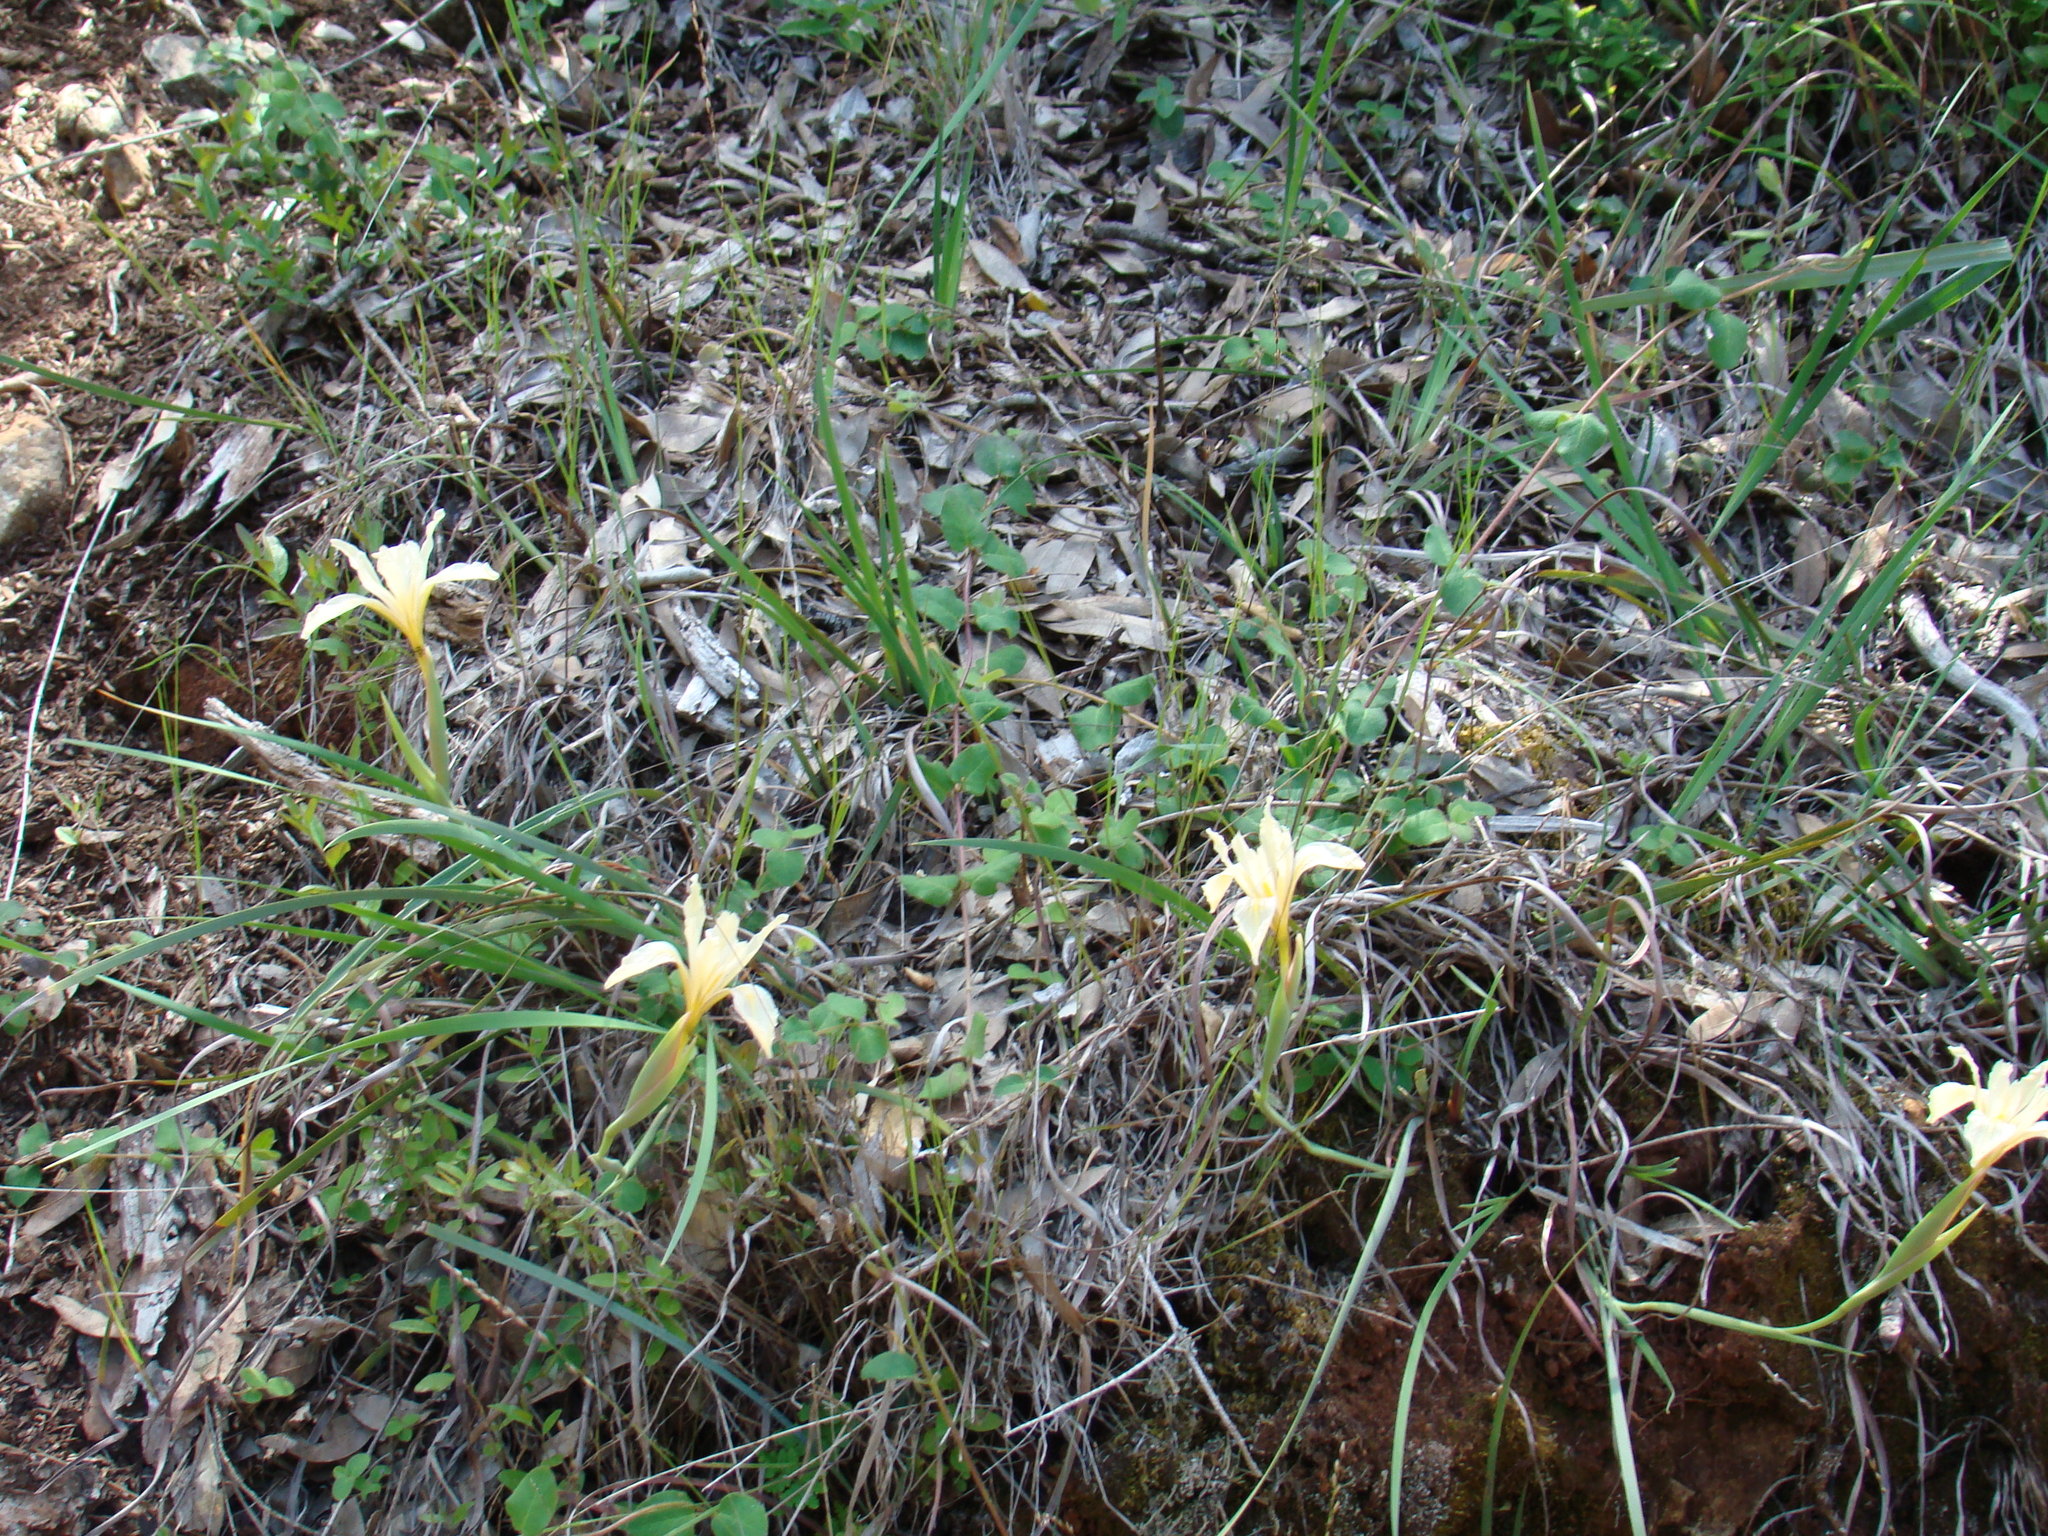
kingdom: Plantae
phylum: Tracheophyta
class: Liliopsida
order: Asparagales
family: Iridaceae
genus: Iris
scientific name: Iris fernaldii
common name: Fernald's iris
